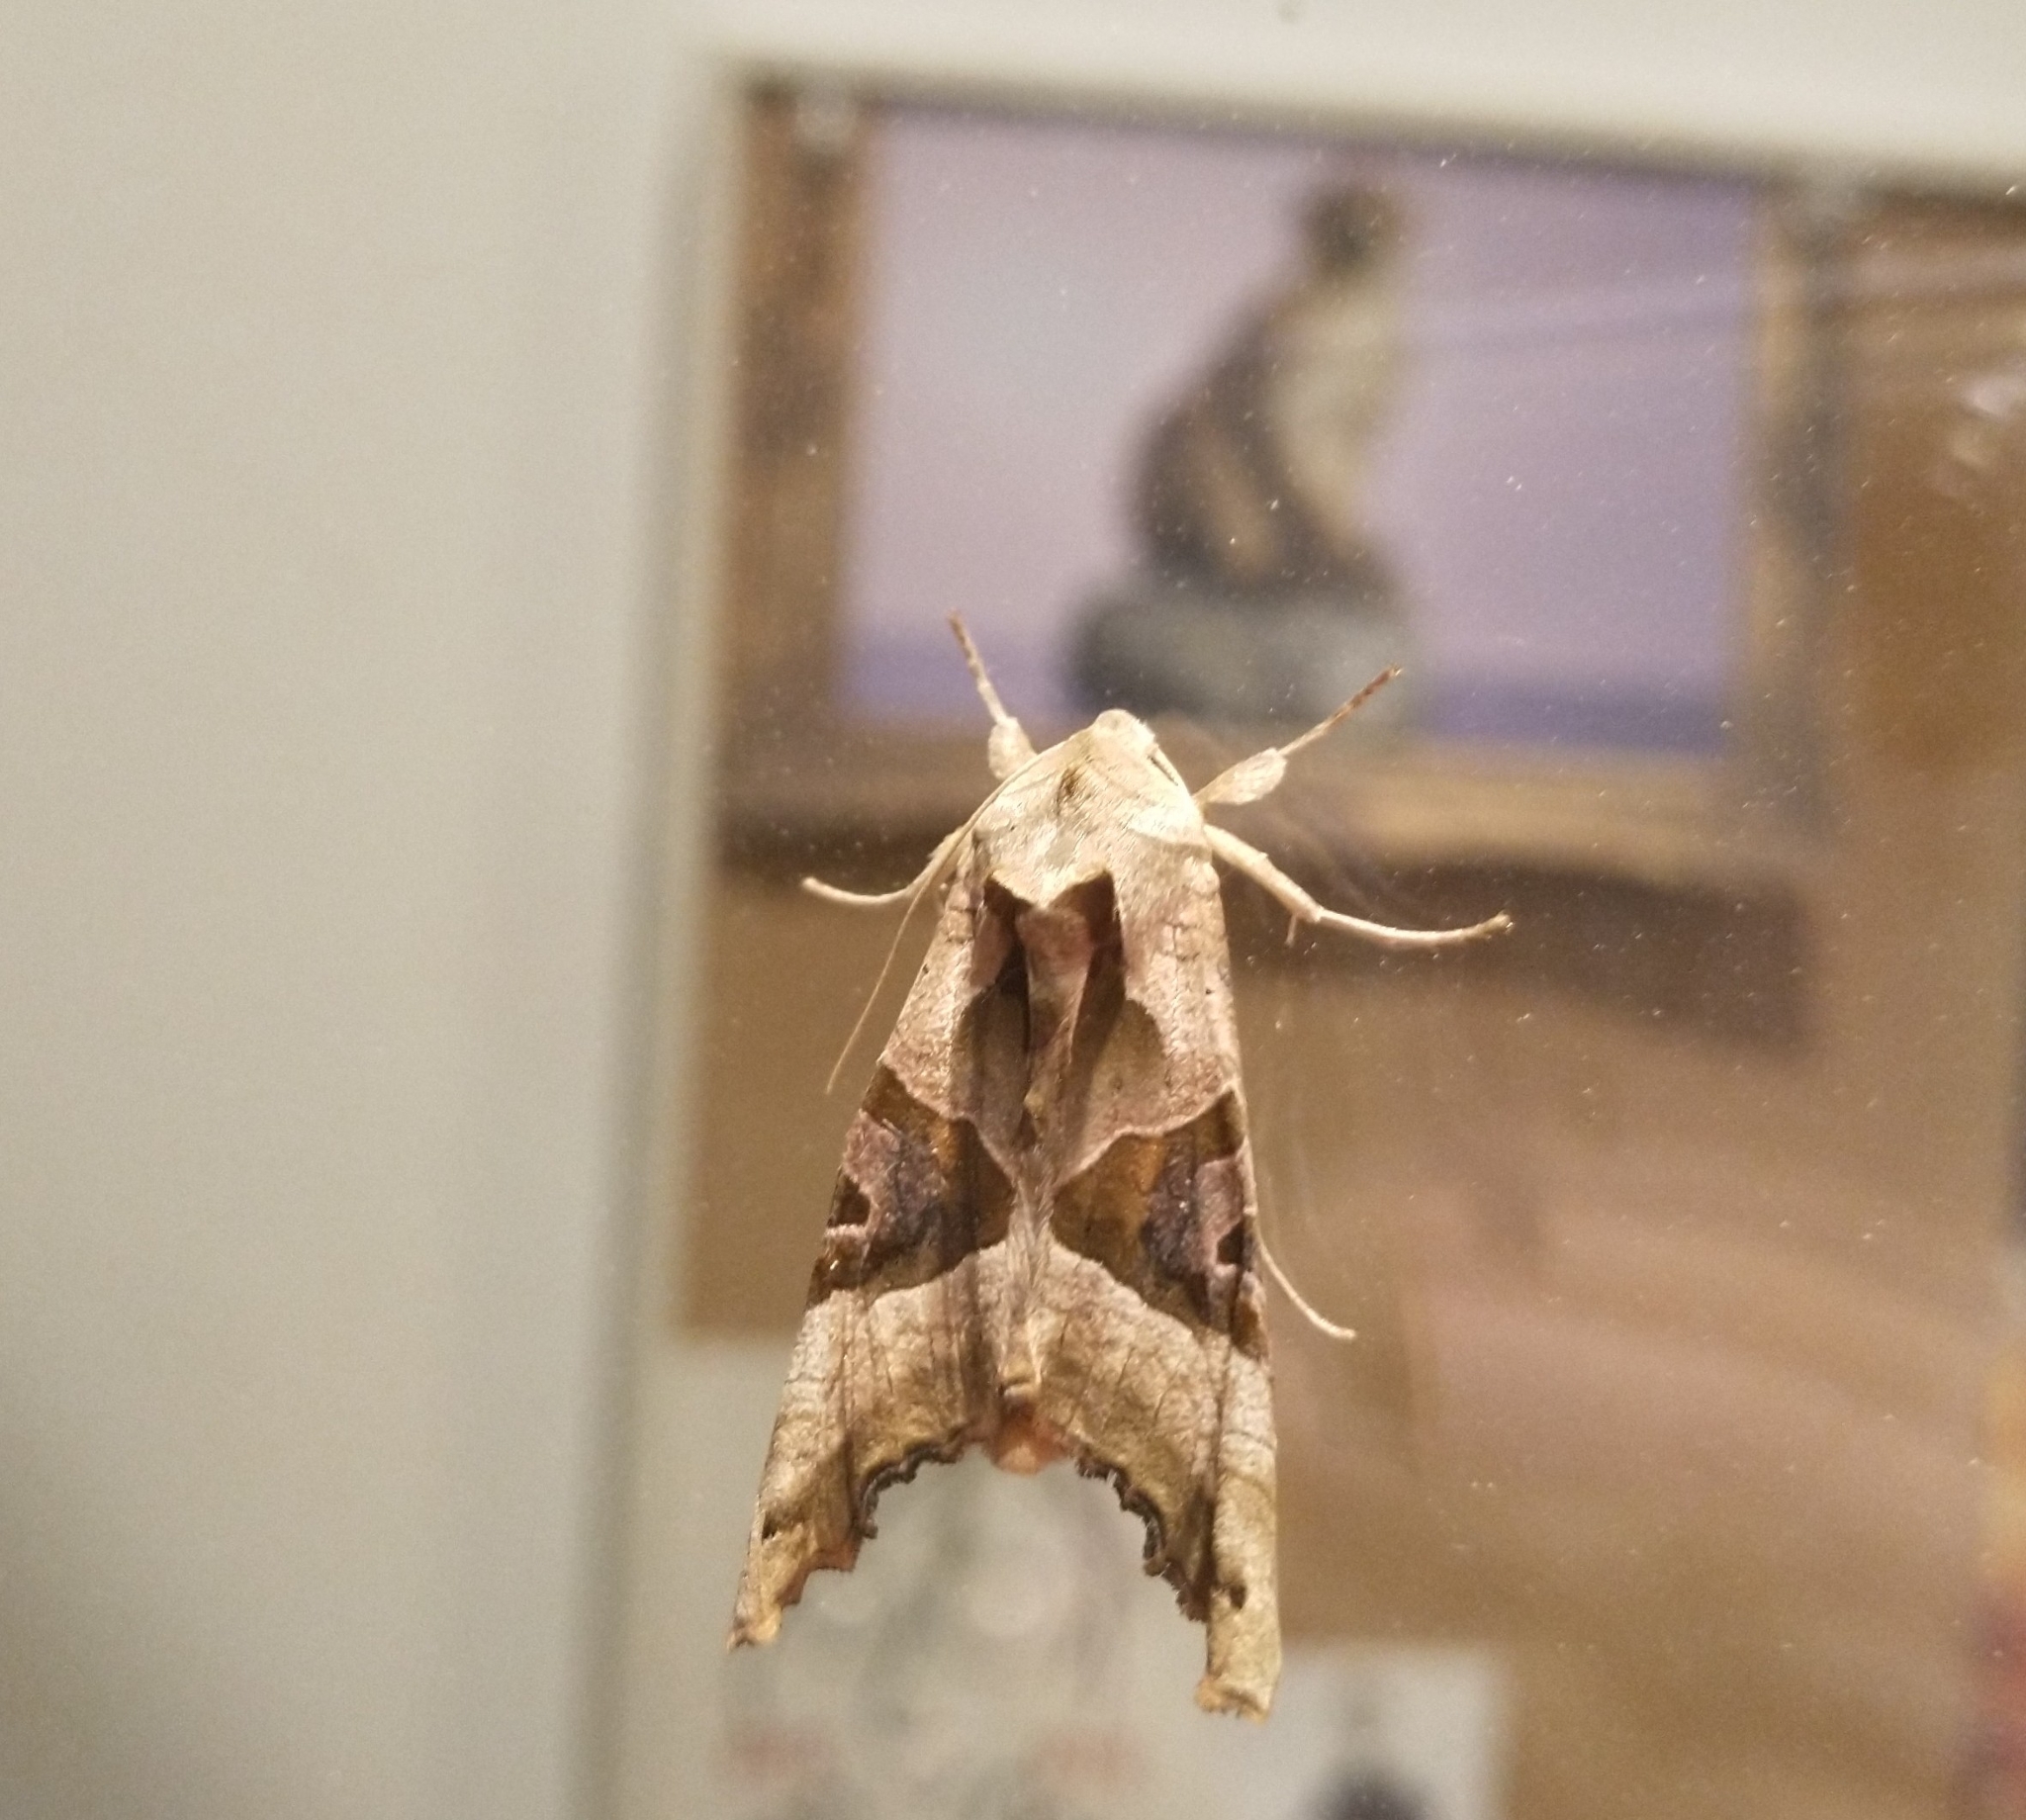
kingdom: Animalia
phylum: Arthropoda
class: Insecta
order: Lepidoptera
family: Noctuidae
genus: Phlogophora
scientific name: Phlogophora meticulosa
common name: Angle shades
